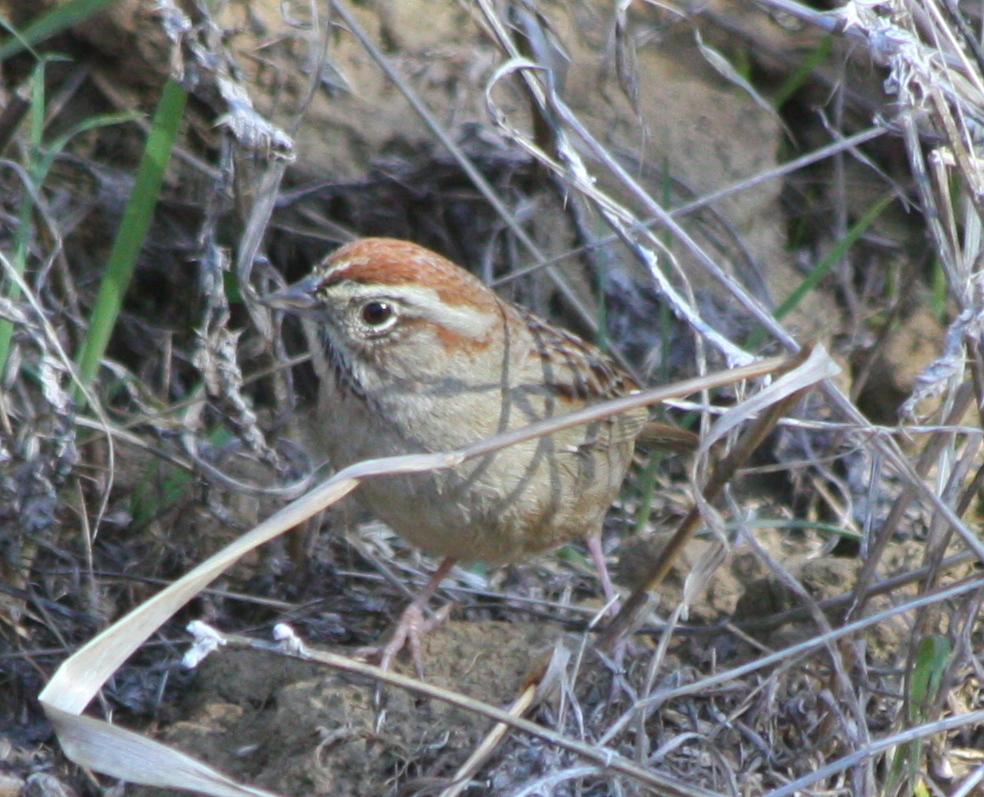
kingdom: Animalia
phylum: Chordata
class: Aves
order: Passeriformes
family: Passerellidae
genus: Aimophila
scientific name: Aimophila ruficeps
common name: Rufous-crowned sparrow
